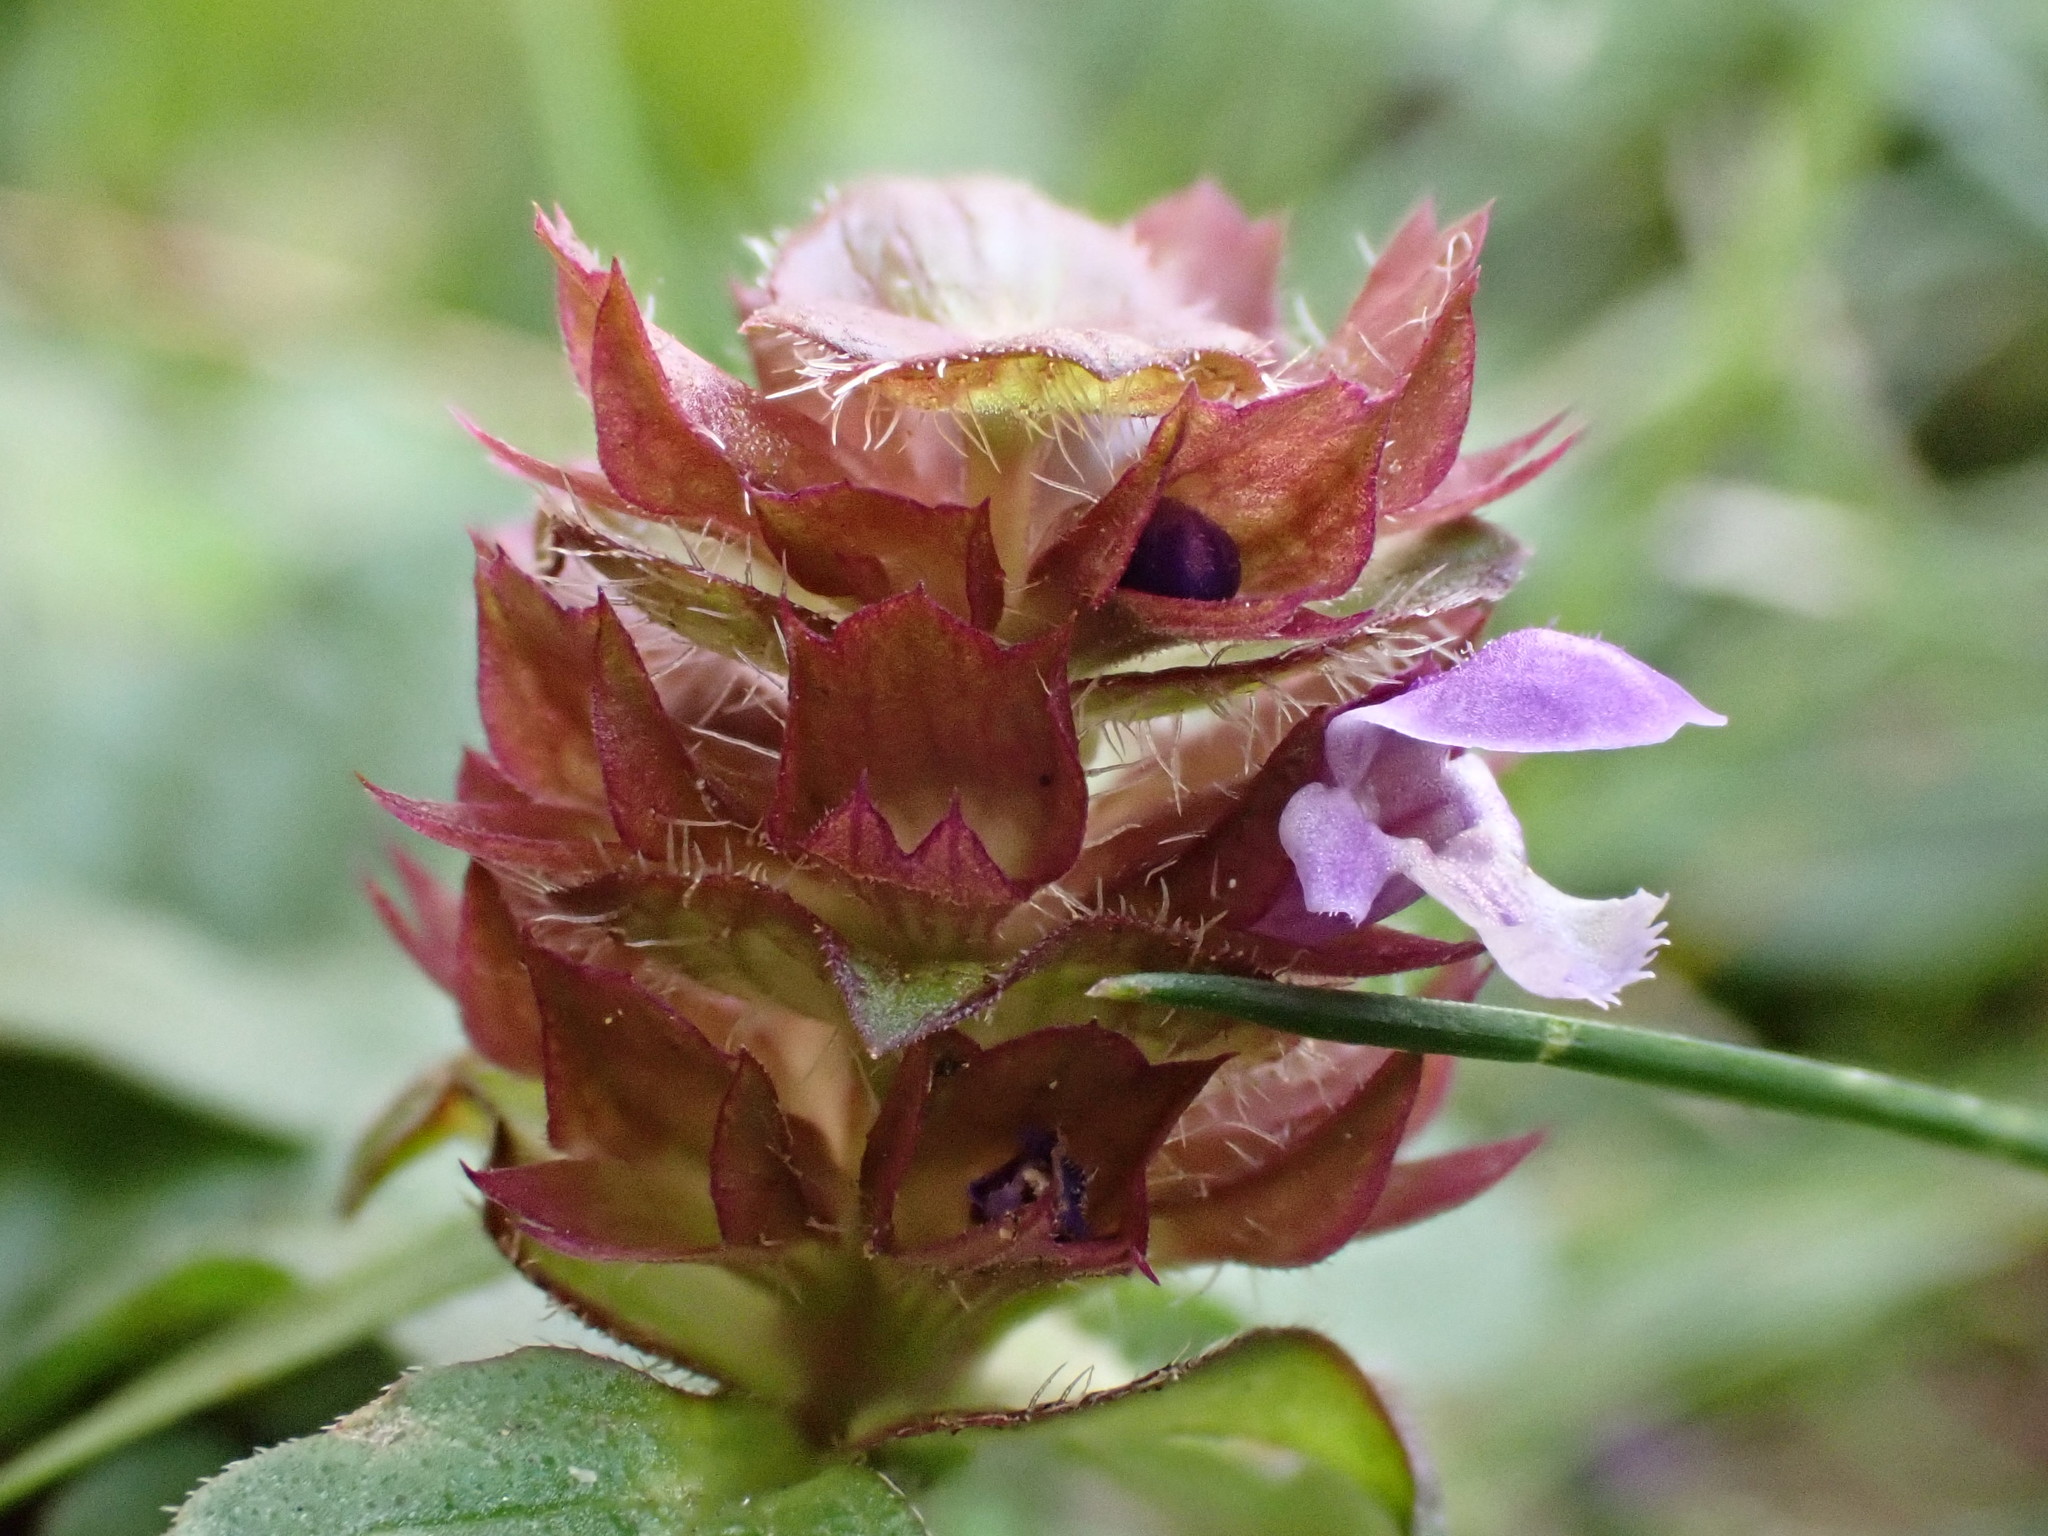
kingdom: Plantae
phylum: Tracheophyta
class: Magnoliopsida
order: Lamiales
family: Lamiaceae
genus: Prunella
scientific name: Prunella vulgaris
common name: Heal-all
